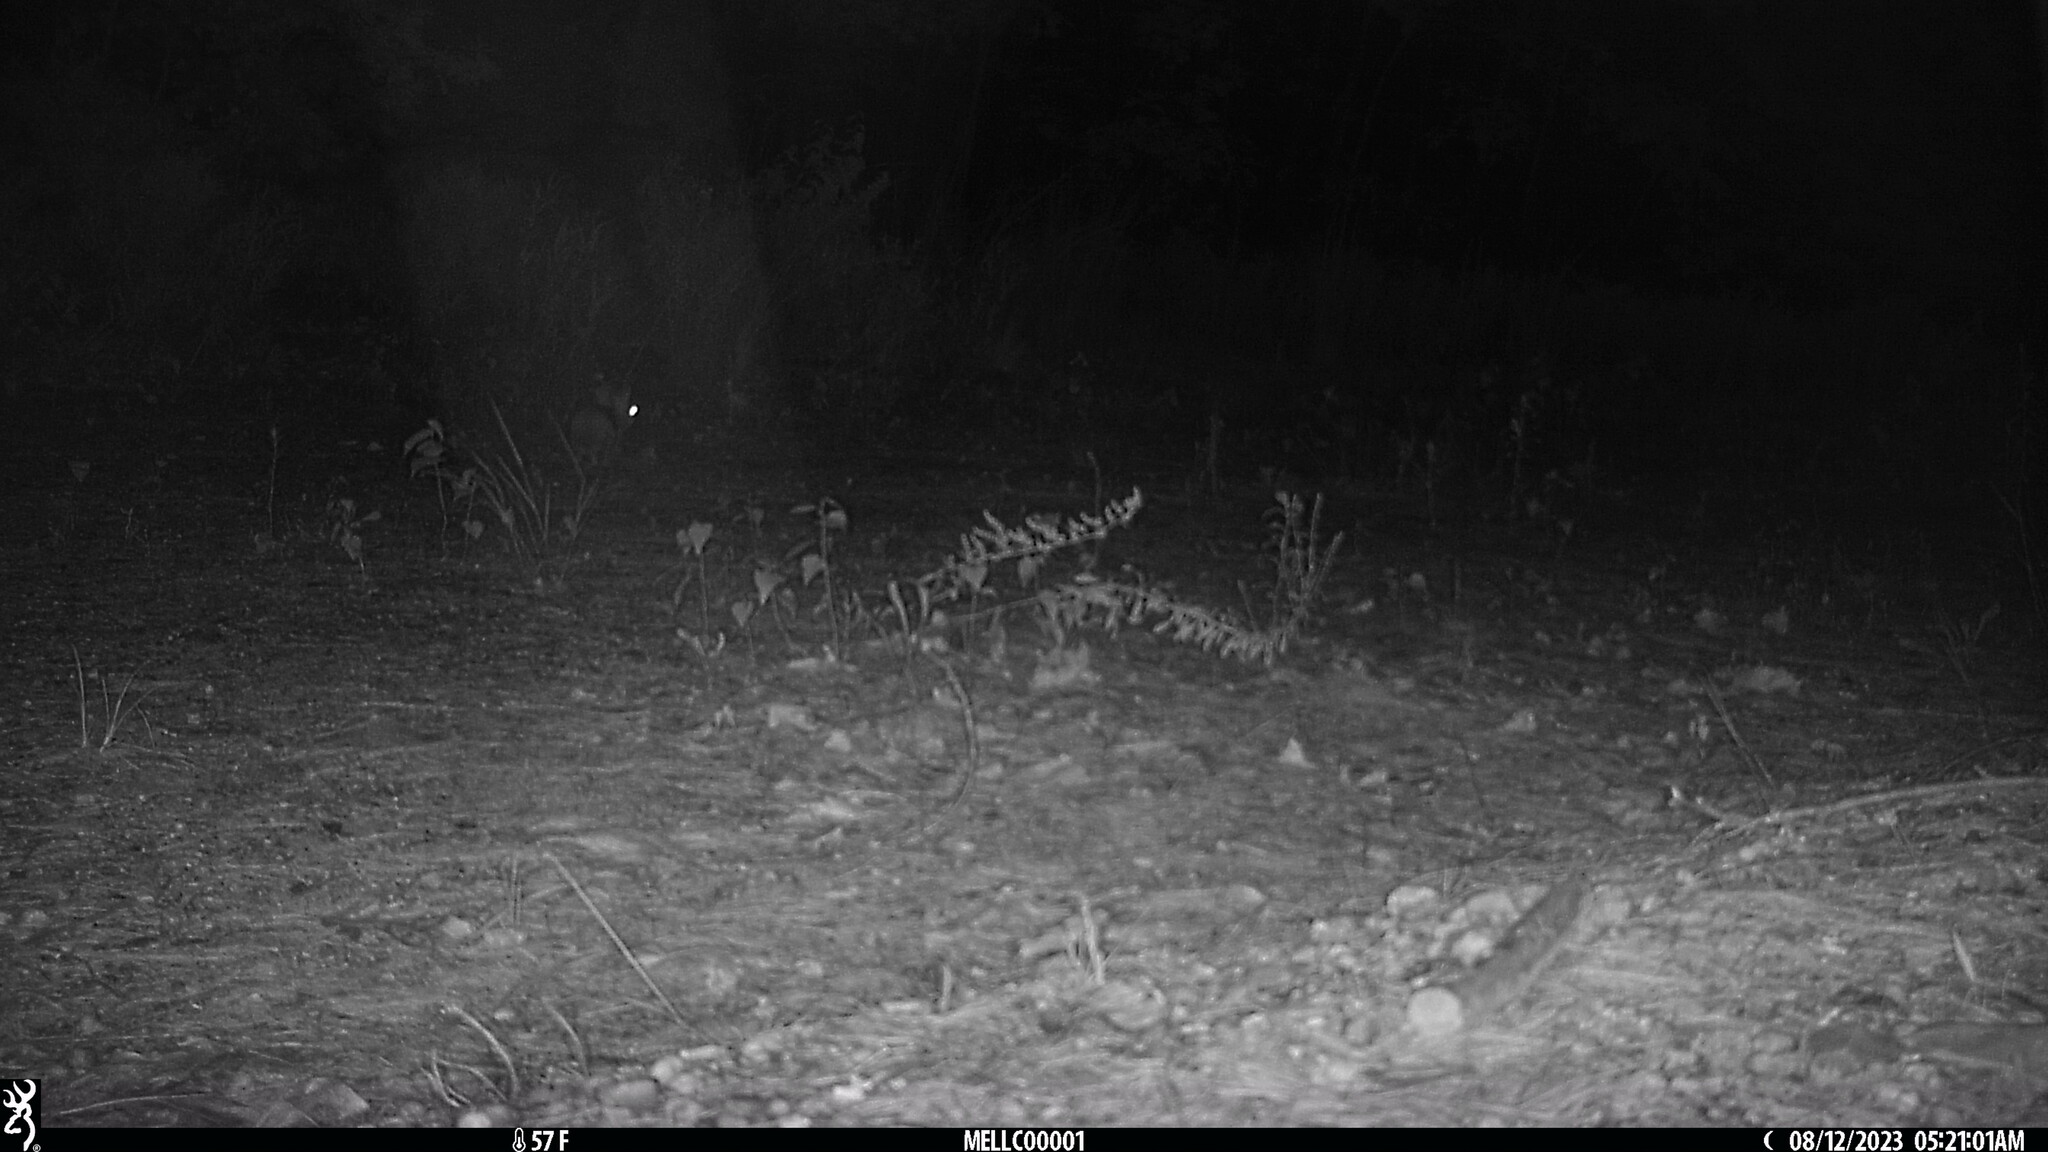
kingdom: Animalia
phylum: Chordata
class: Mammalia
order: Lagomorpha
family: Leporidae
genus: Sylvilagus
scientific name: Sylvilagus floridanus
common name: Eastern cottontail
